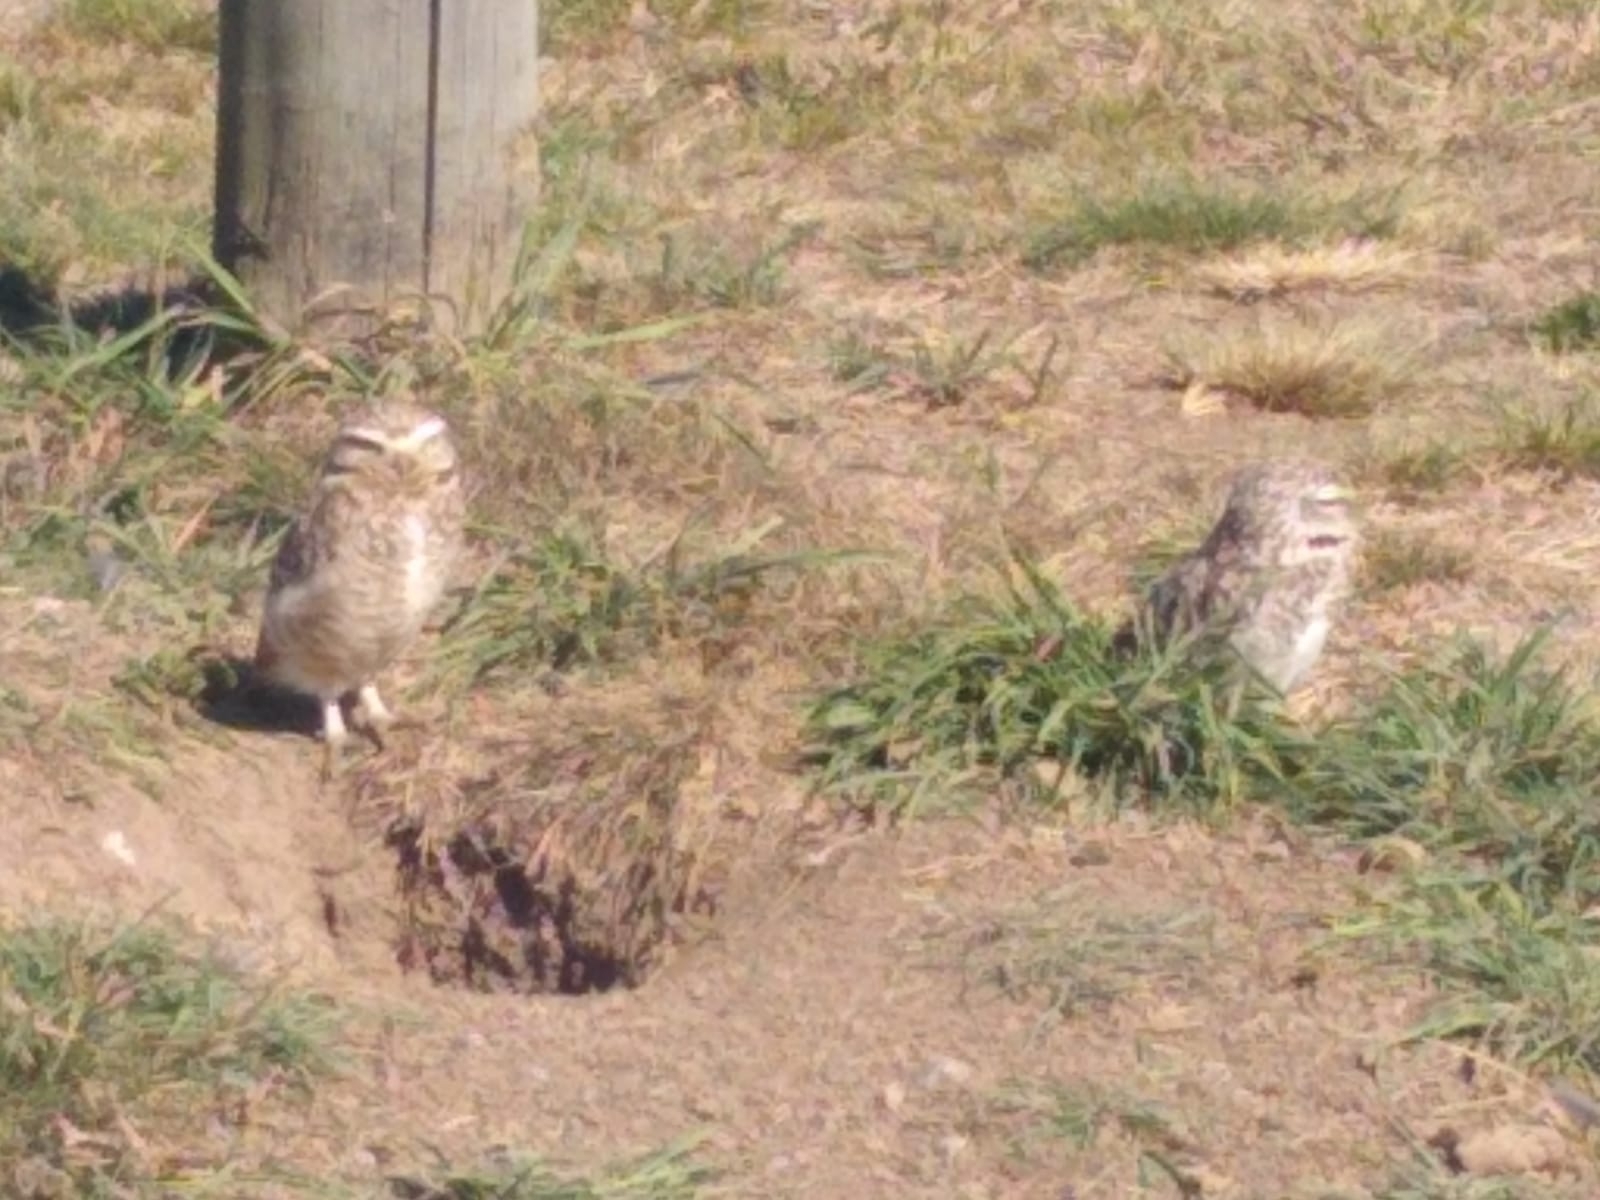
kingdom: Animalia
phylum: Chordata
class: Aves
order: Strigiformes
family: Strigidae
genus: Athene
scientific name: Athene cunicularia
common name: Burrowing owl
